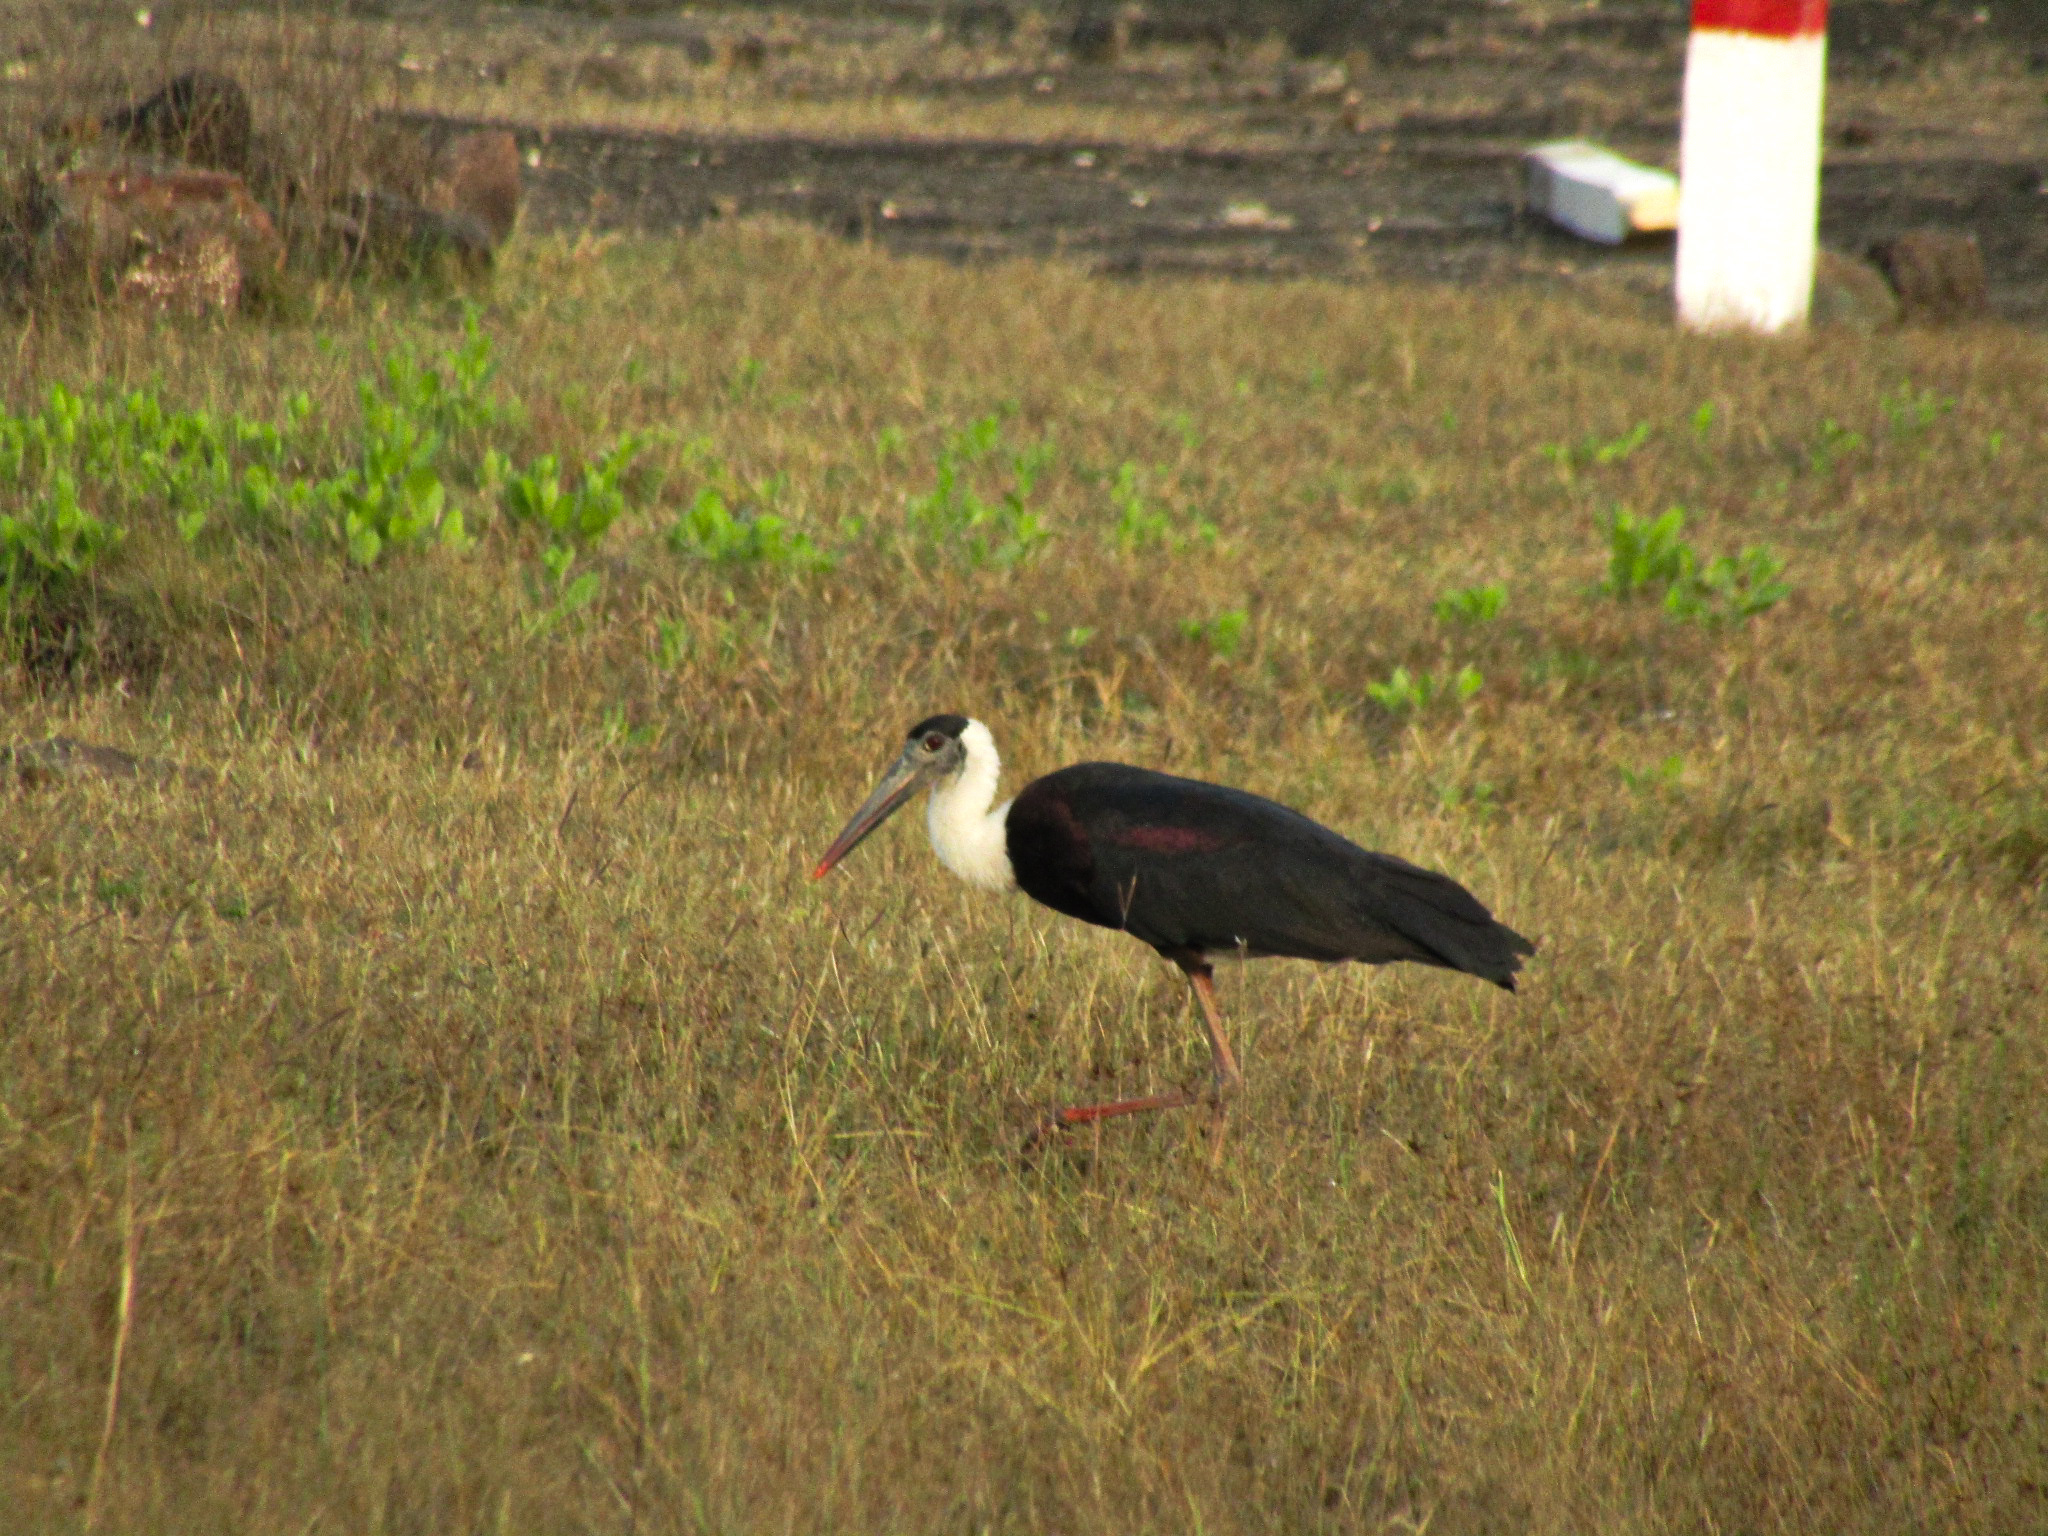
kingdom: Animalia
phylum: Chordata
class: Aves
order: Ciconiiformes
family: Ciconiidae
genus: Ciconia
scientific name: Ciconia episcopus
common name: Woolly-necked stork
